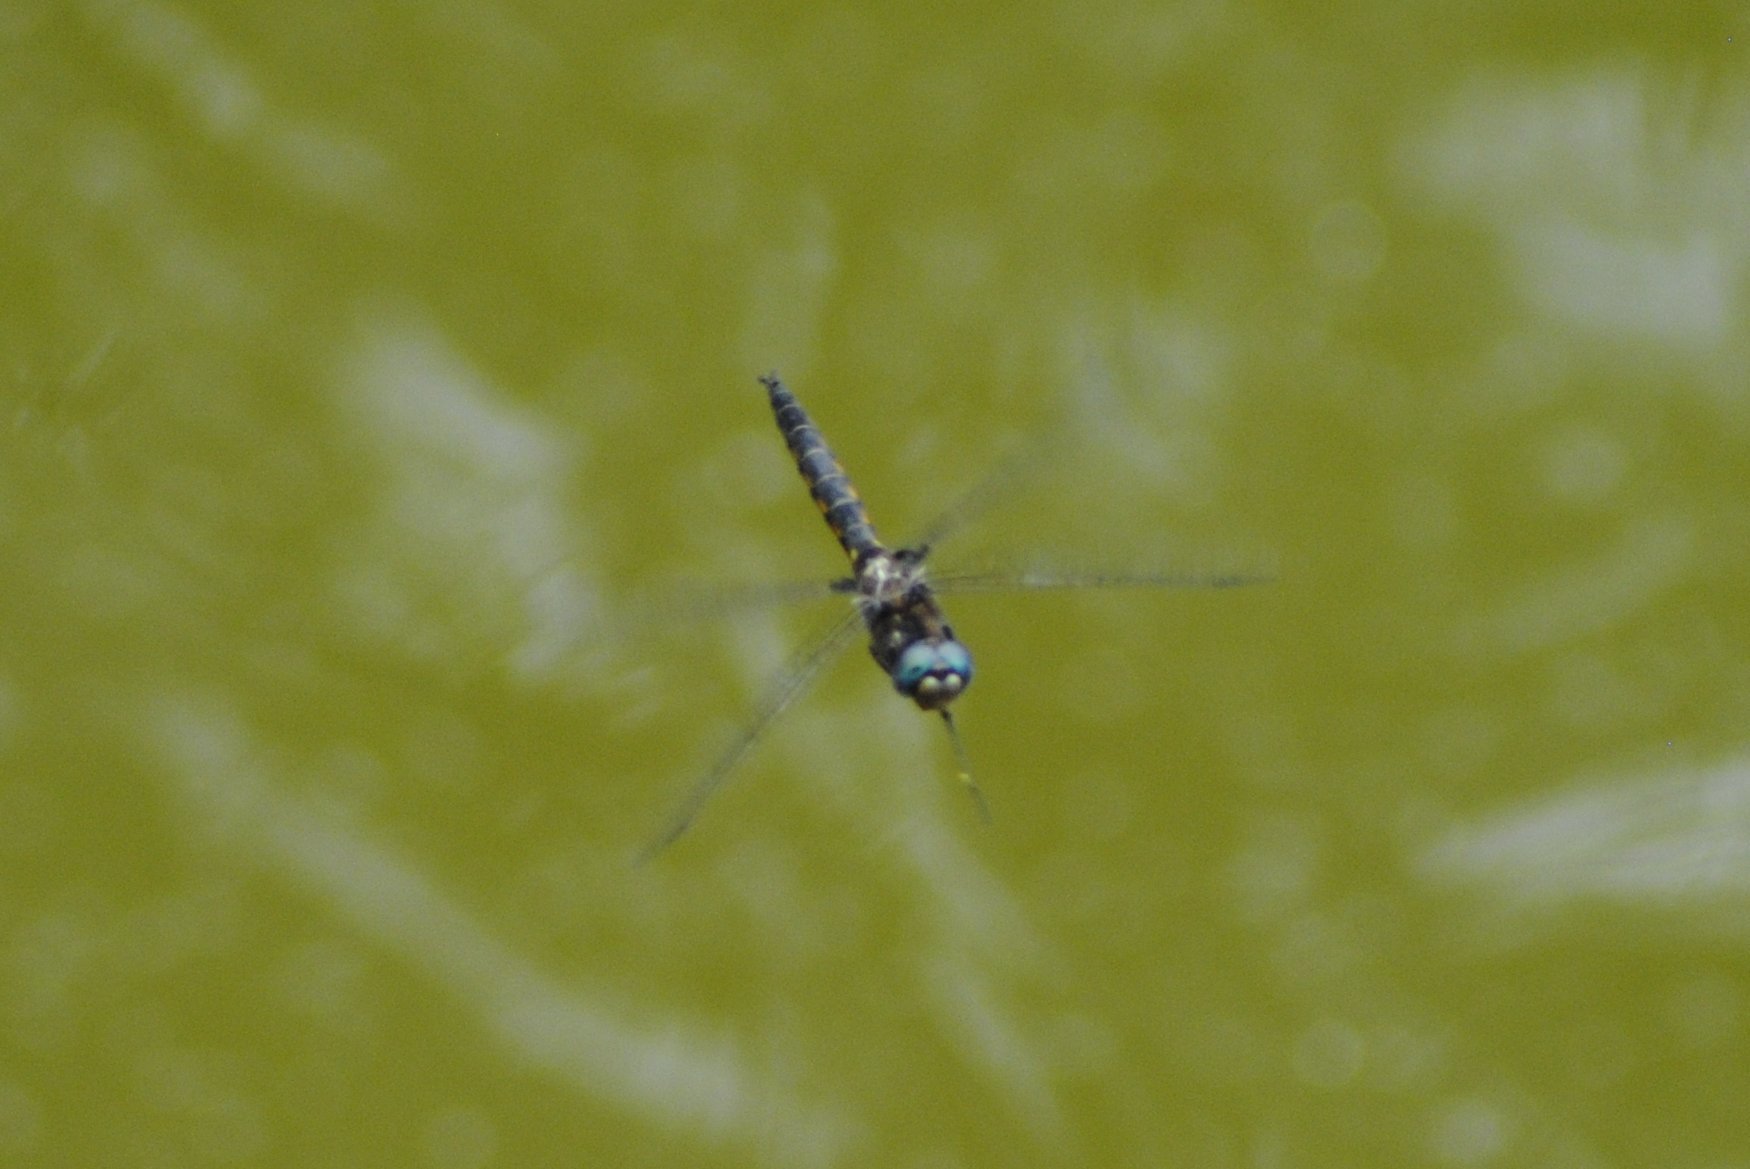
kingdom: Animalia
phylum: Arthropoda
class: Insecta
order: Odonata
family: Corduliidae
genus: Epitheca
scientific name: Epitheca cynosura
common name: Common baskettail
